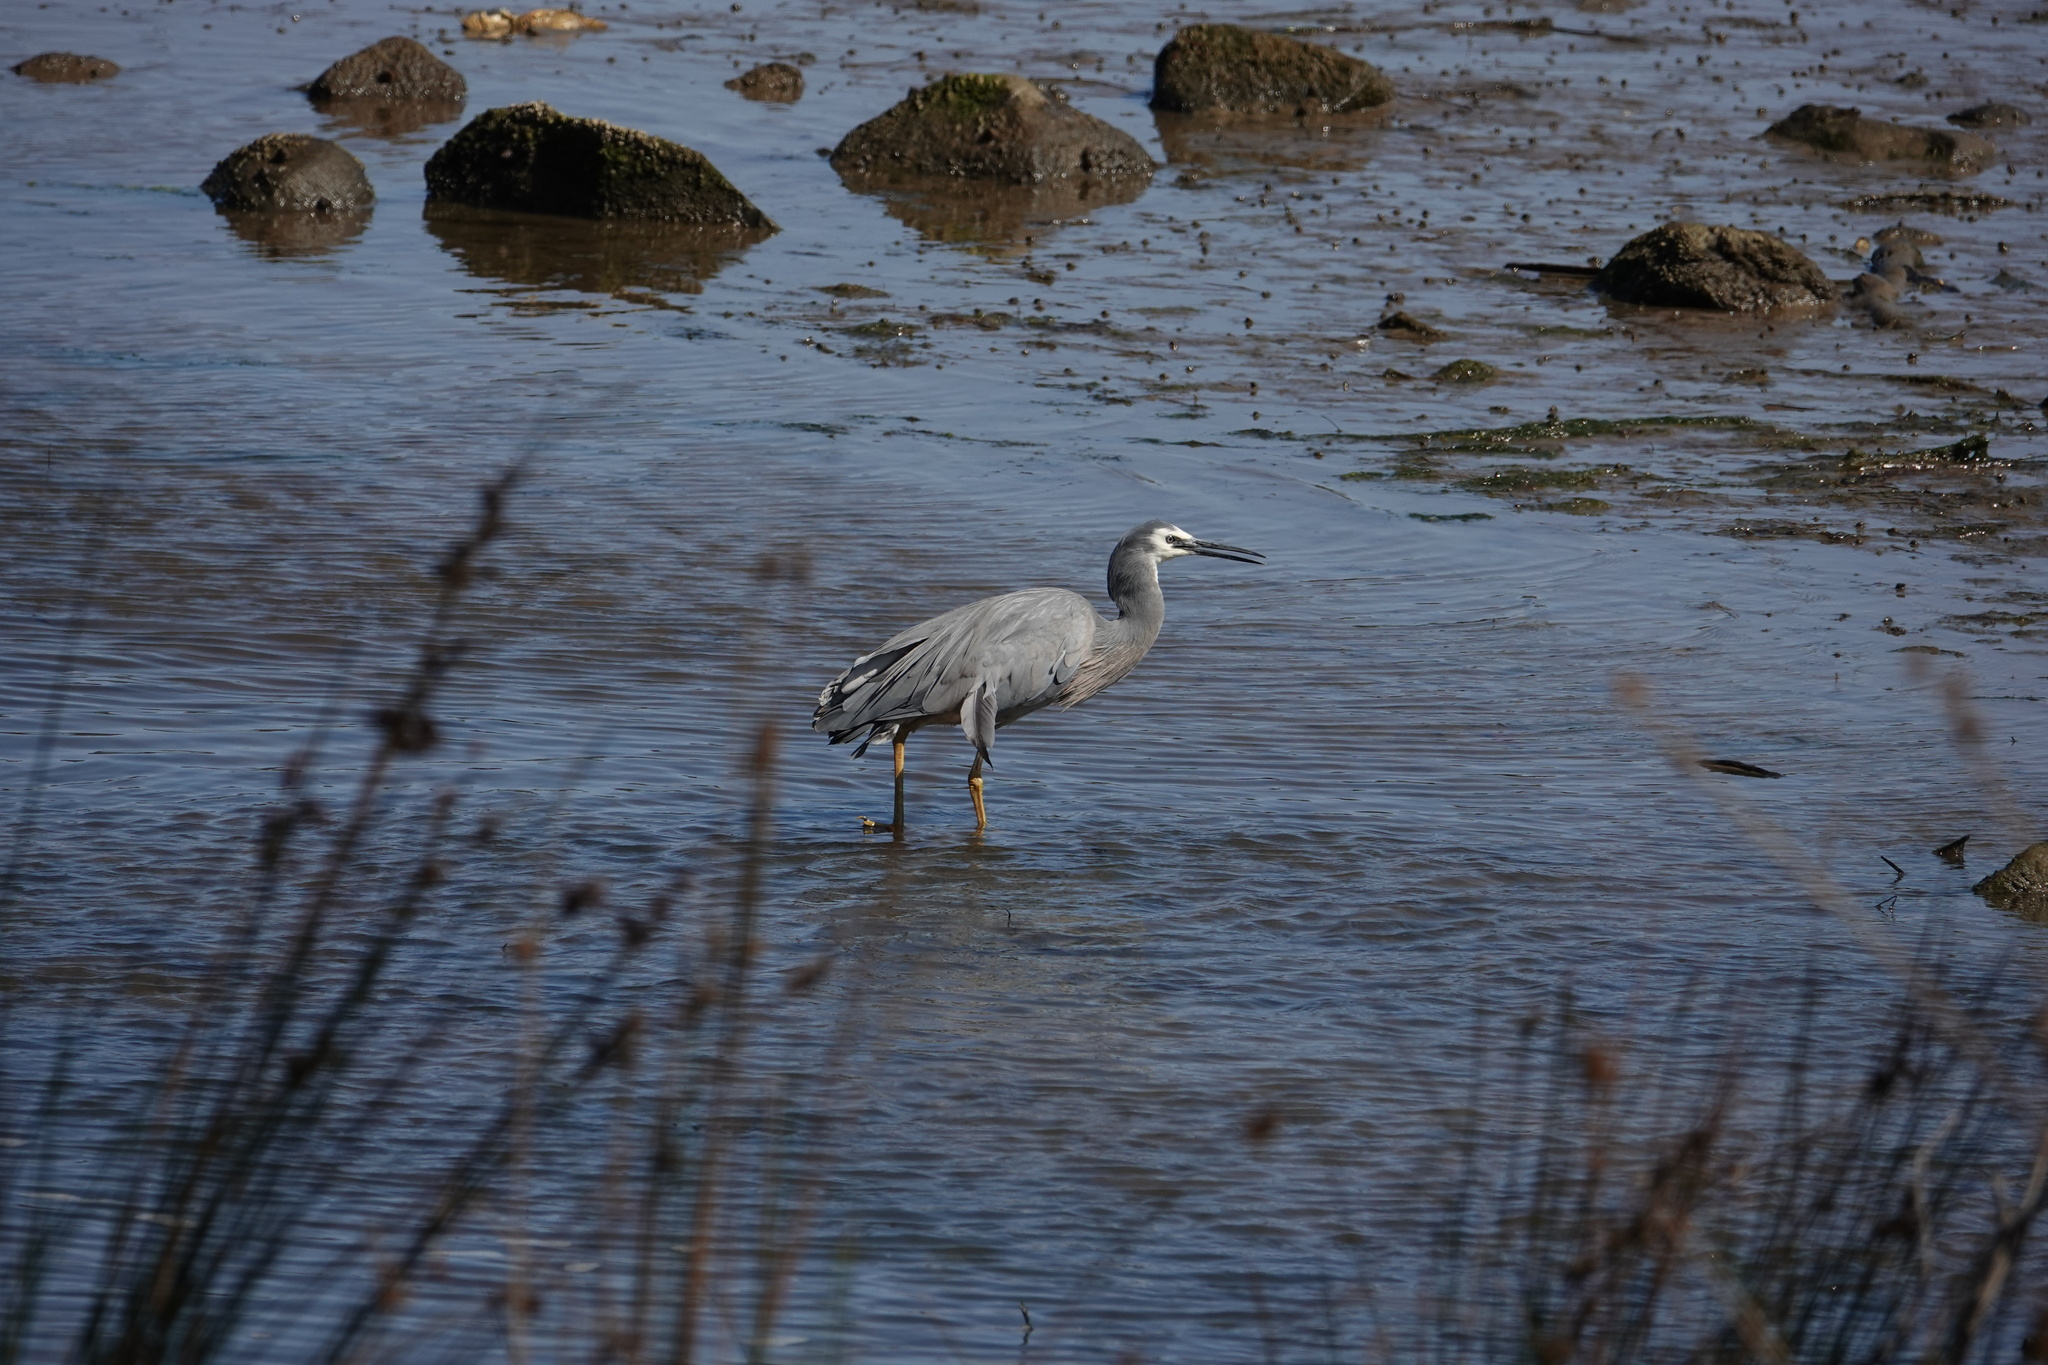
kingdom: Animalia
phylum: Chordata
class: Aves
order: Pelecaniformes
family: Ardeidae
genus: Egretta
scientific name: Egretta novaehollandiae
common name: White-faced heron
